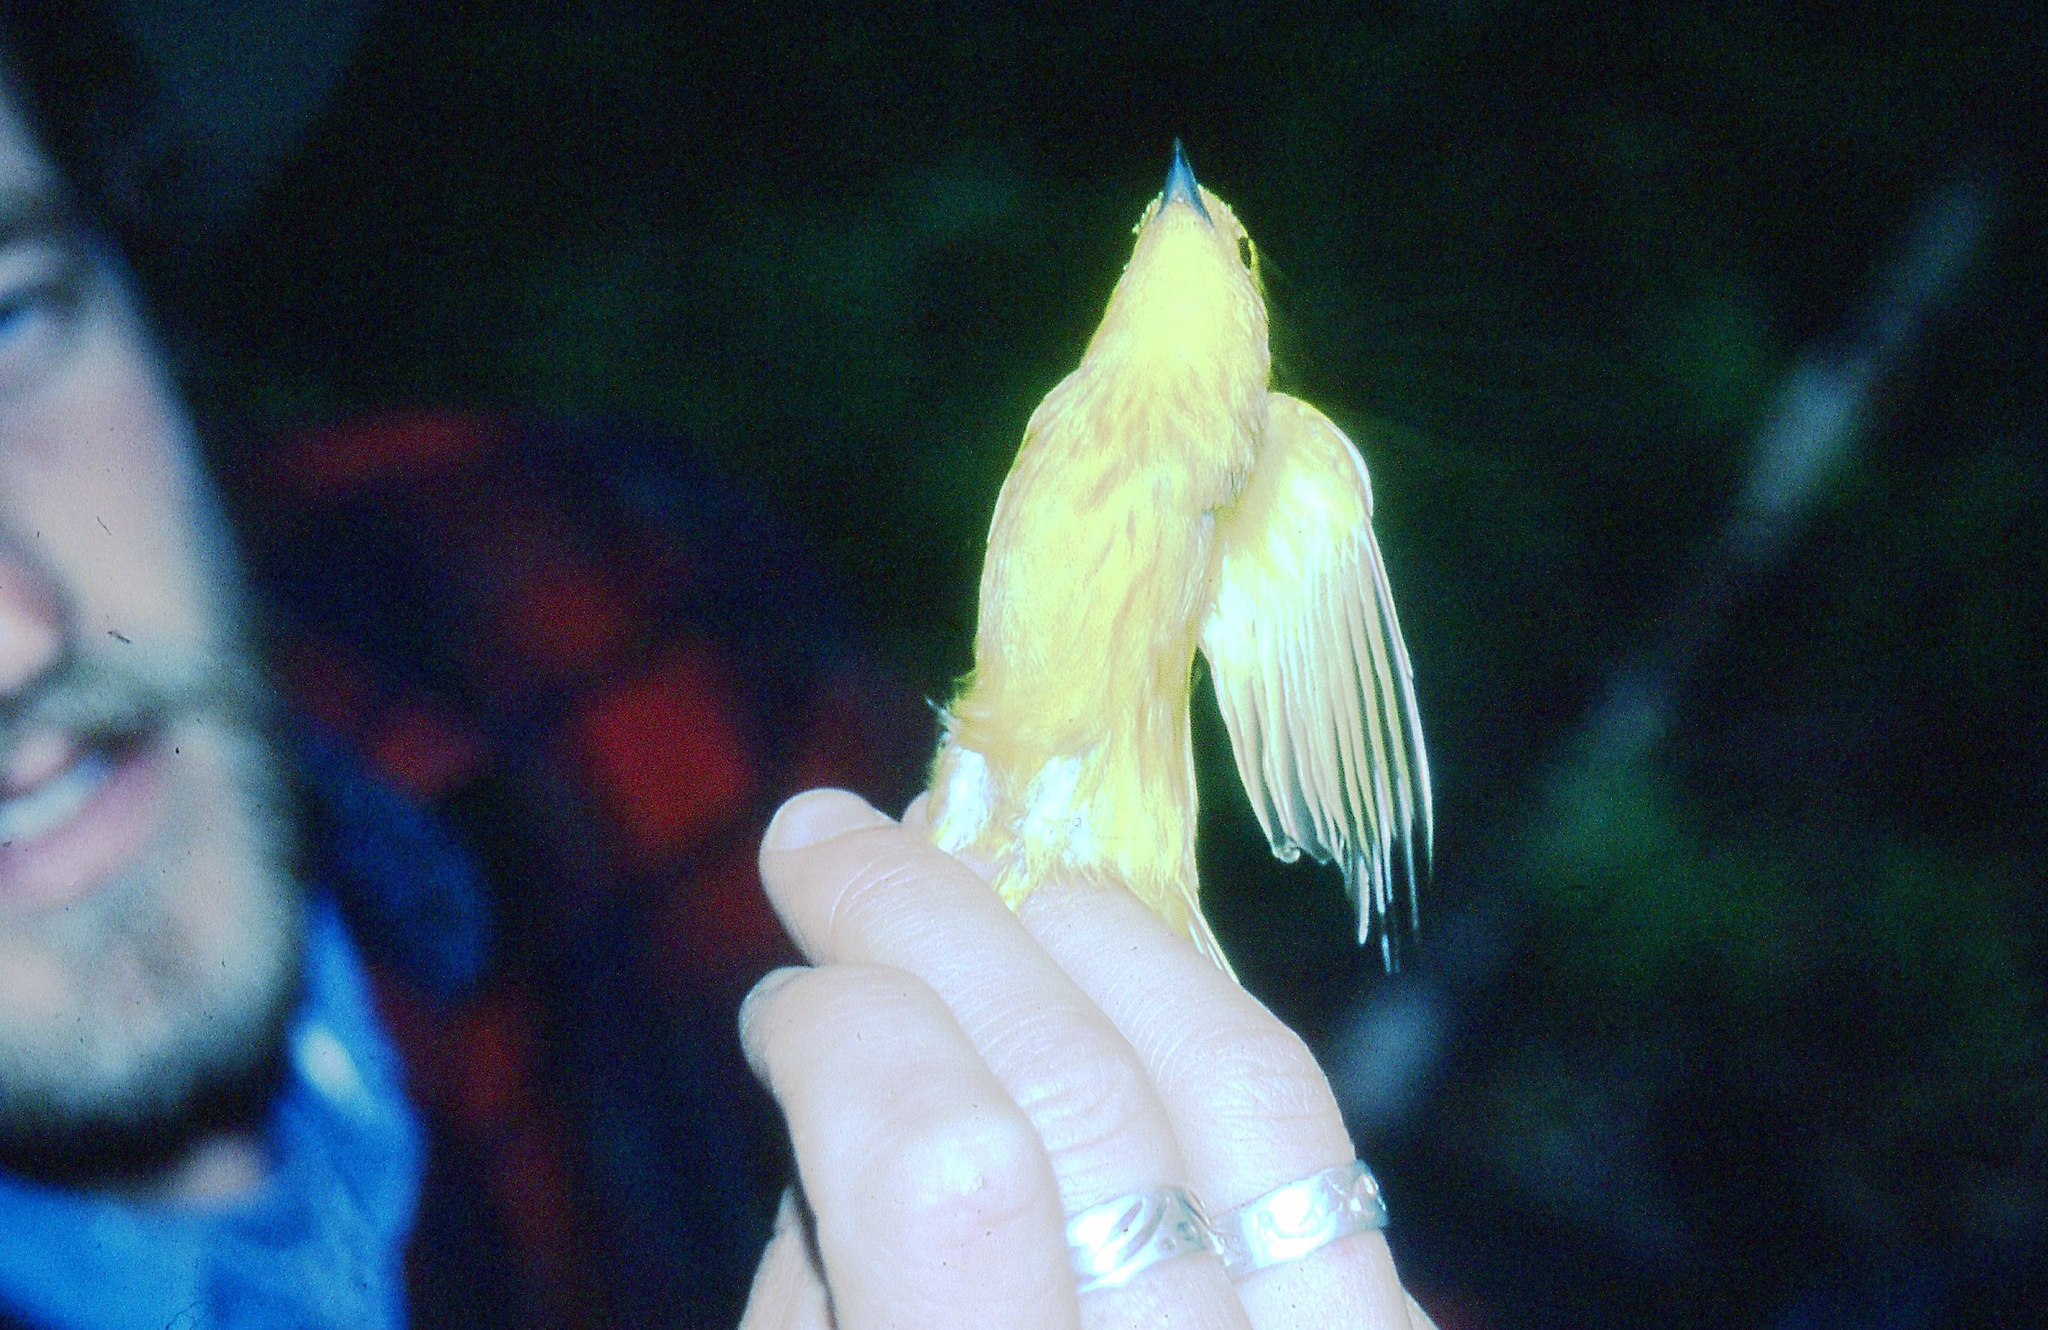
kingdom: Animalia
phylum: Chordata
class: Aves
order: Passeriformes
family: Parulidae
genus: Setophaga
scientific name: Setophaga petechia
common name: Yellow warbler
